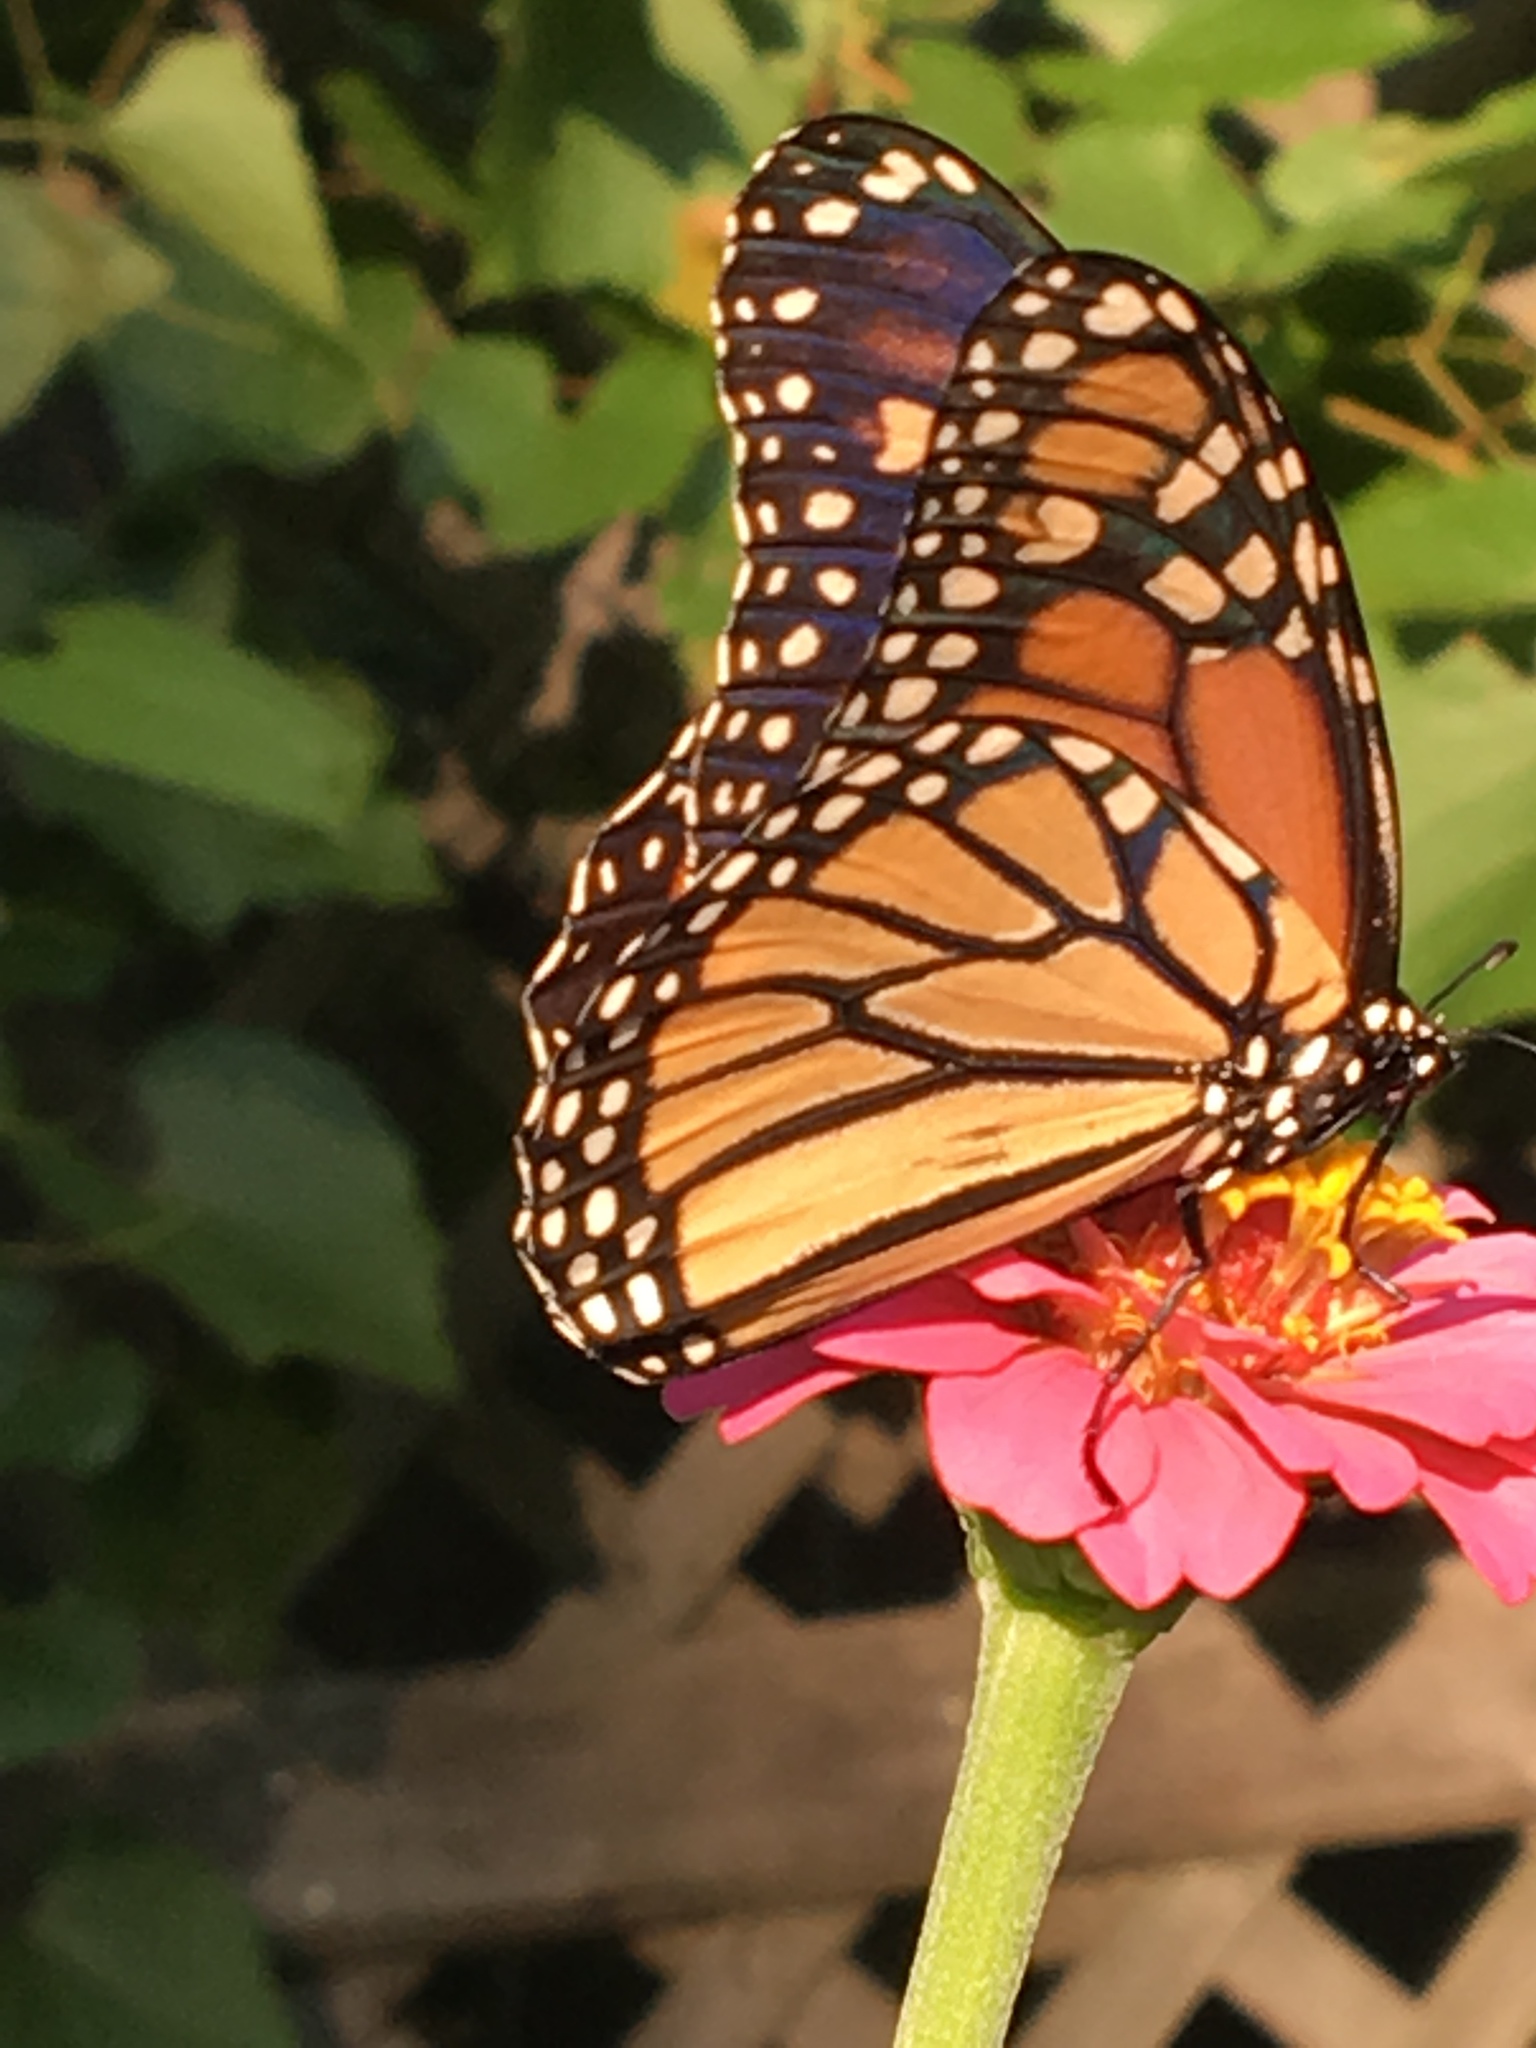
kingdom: Animalia
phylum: Arthropoda
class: Insecta
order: Lepidoptera
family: Nymphalidae
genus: Danaus
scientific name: Danaus plexippus
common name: Monarch
